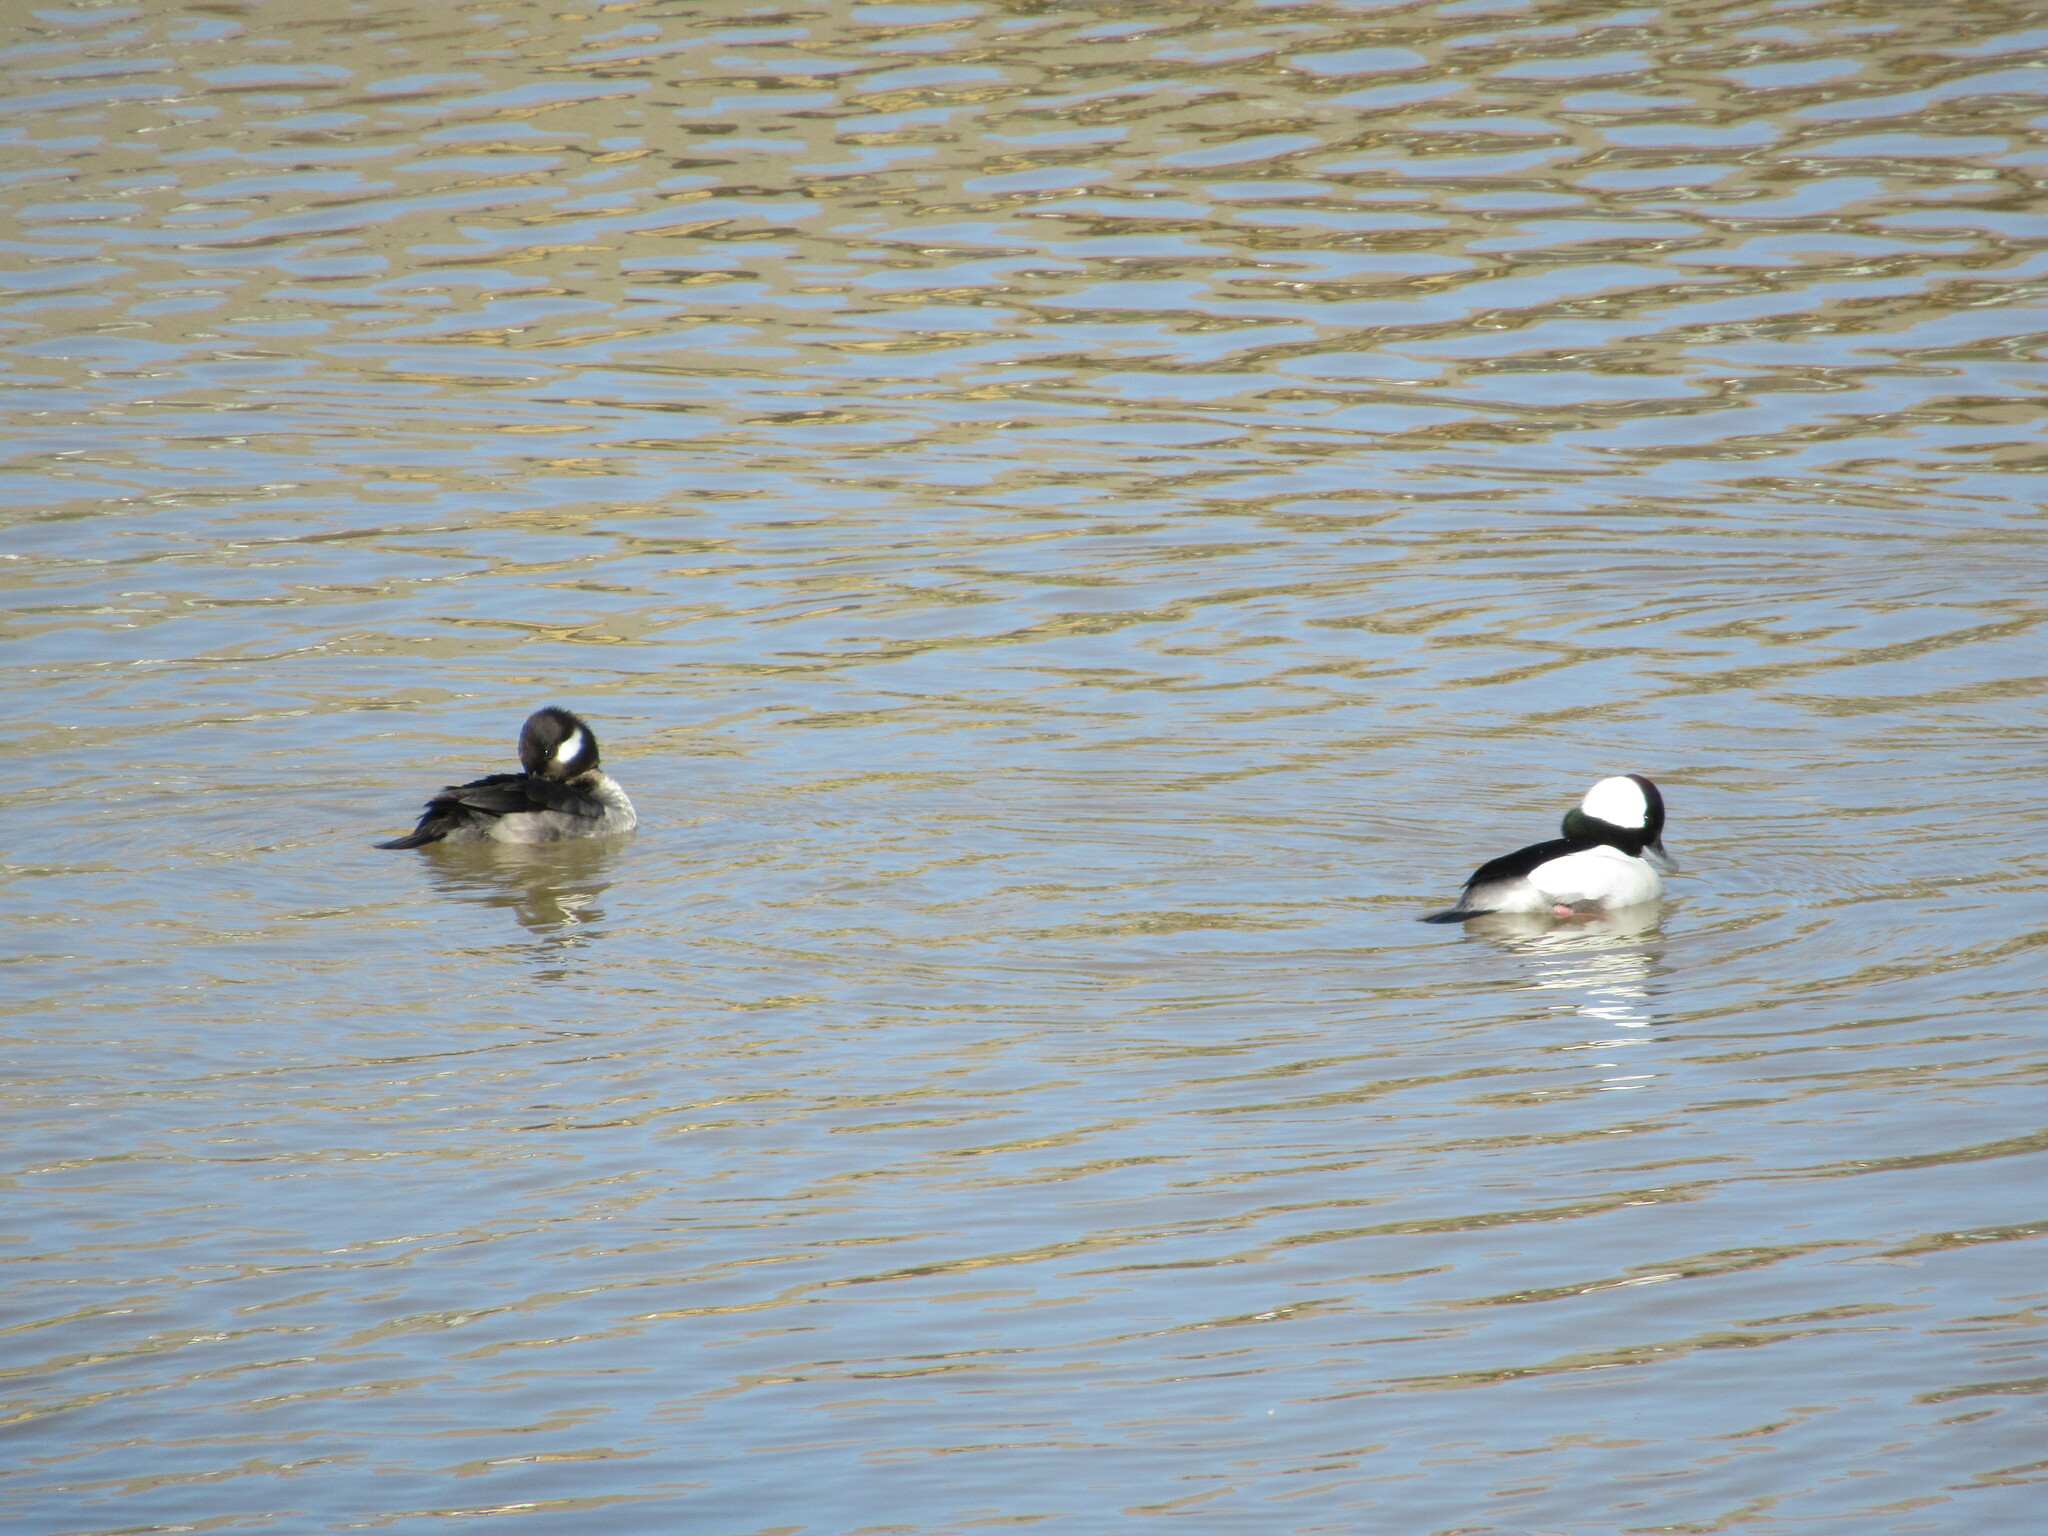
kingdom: Animalia
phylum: Chordata
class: Aves
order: Anseriformes
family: Anatidae
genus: Bucephala
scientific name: Bucephala albeola
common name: Bufflehead
